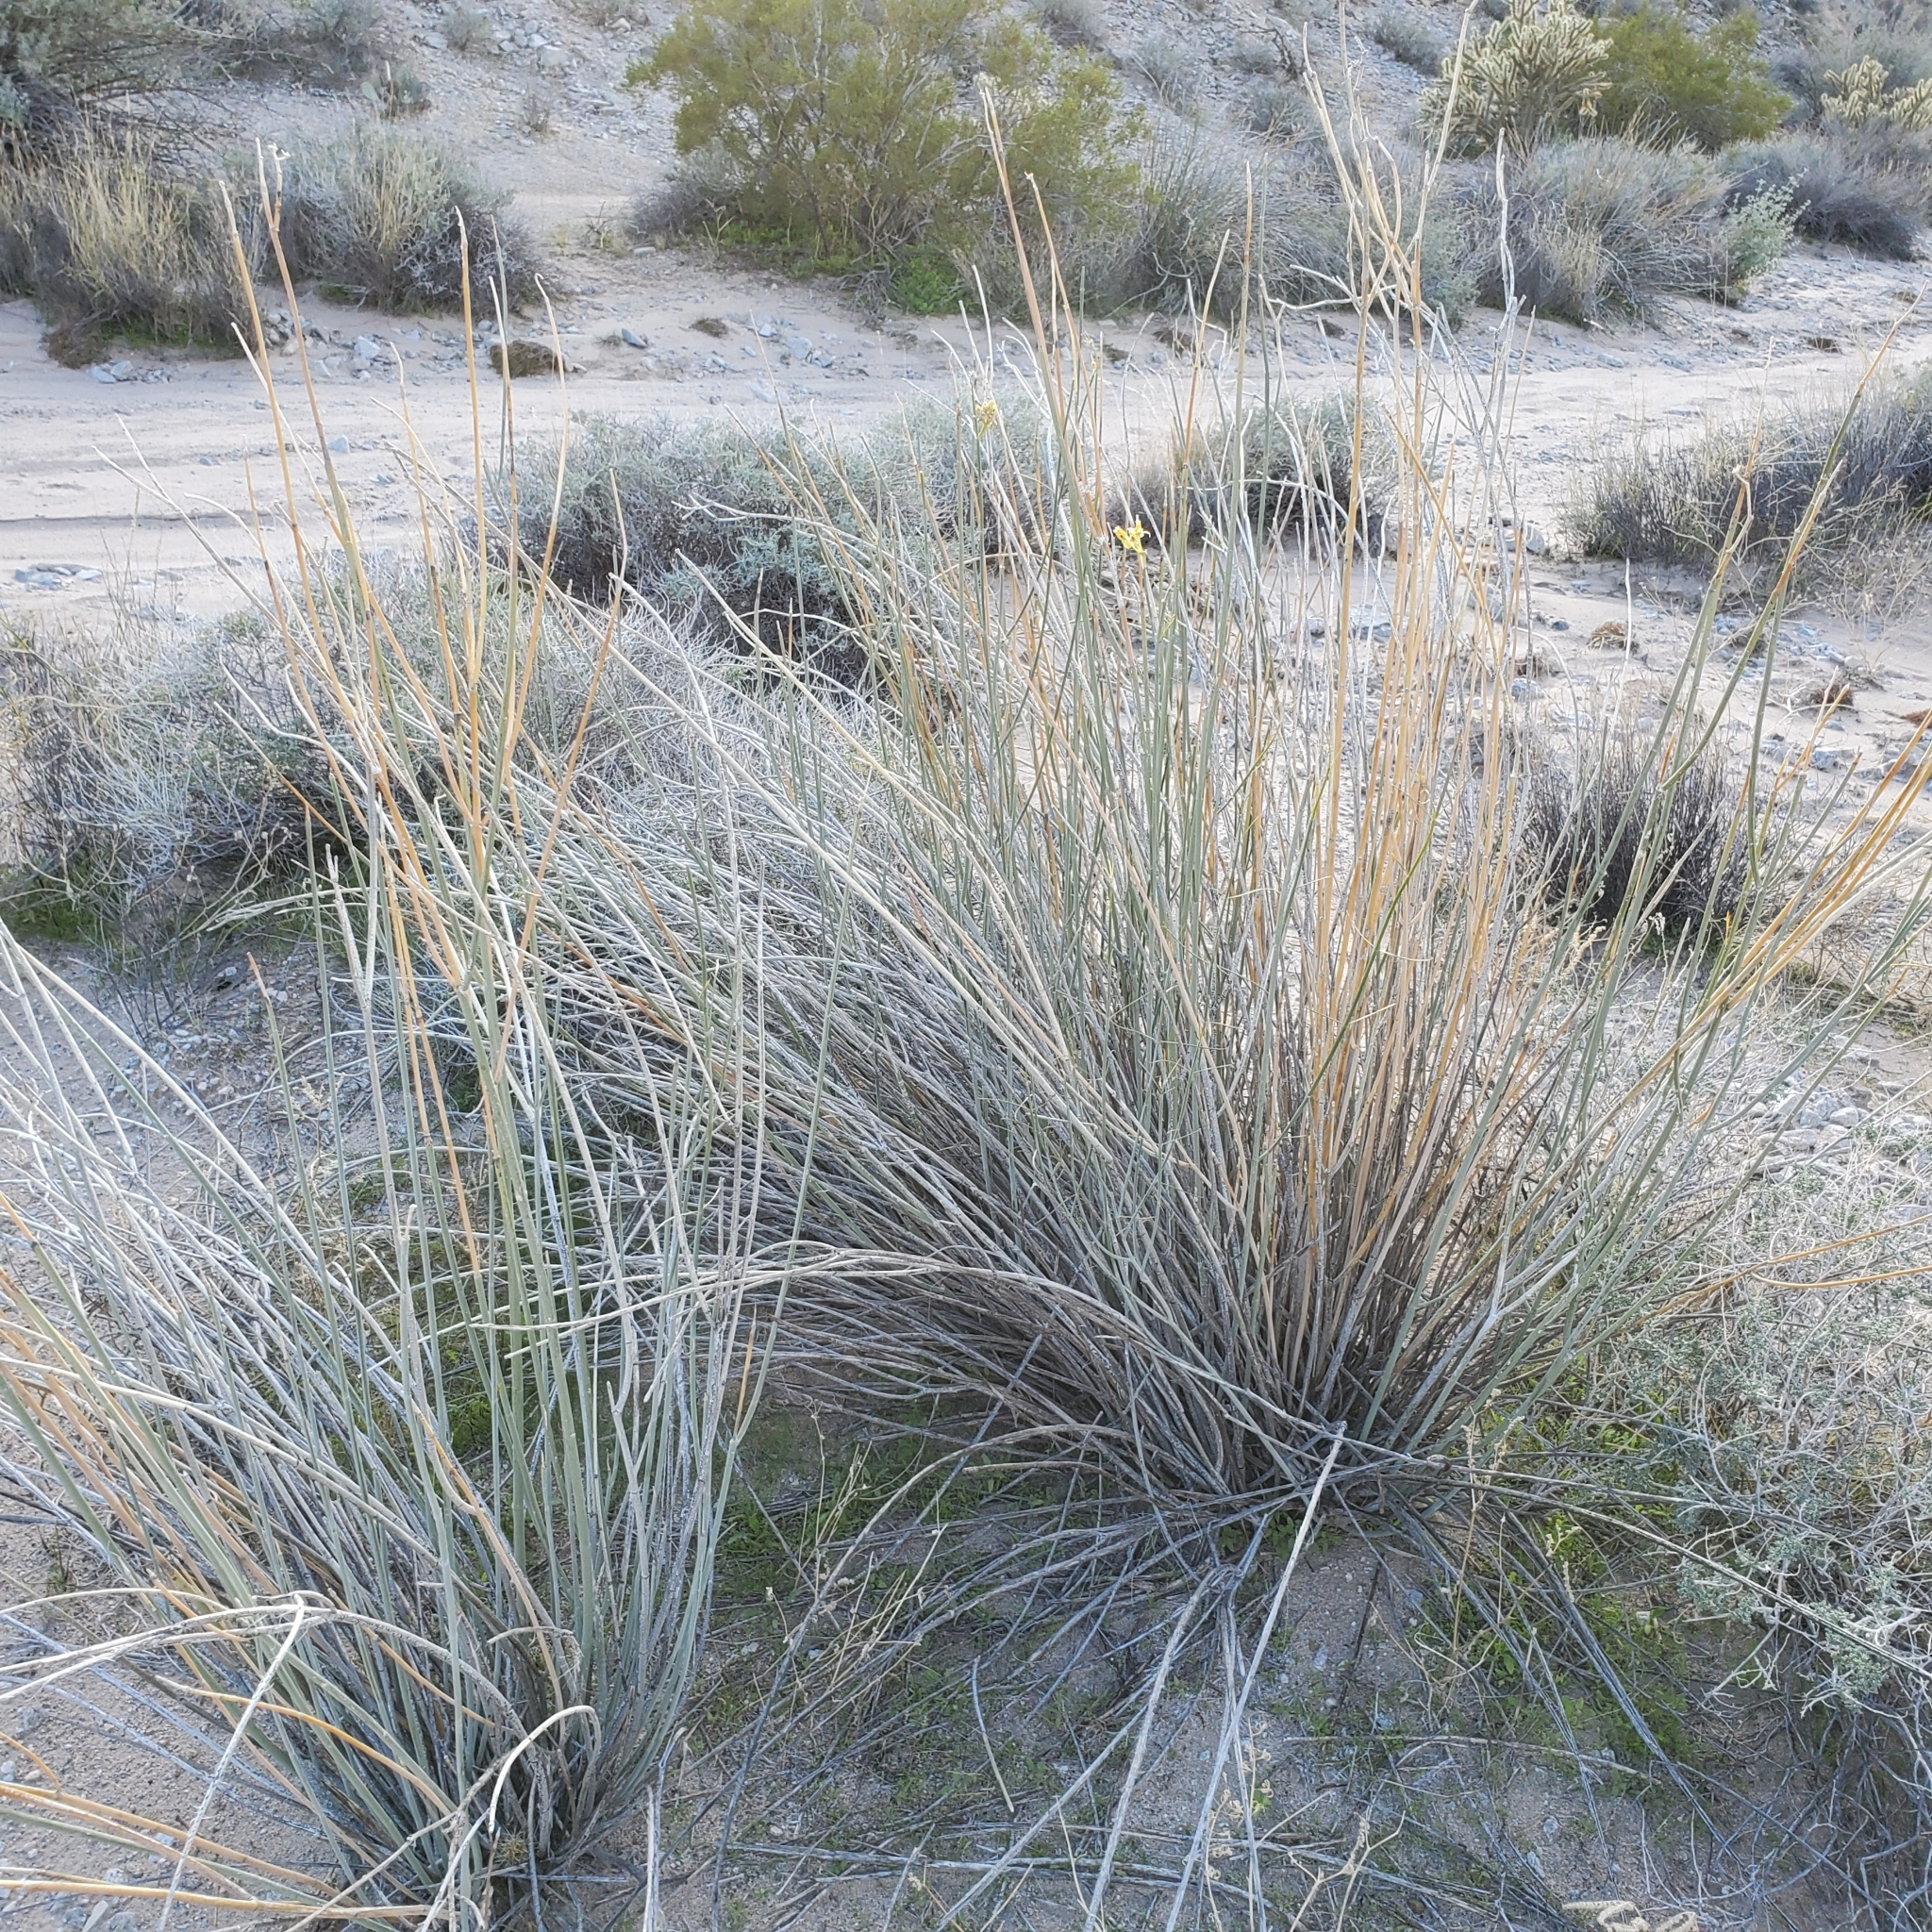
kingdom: Plantae
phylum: Tracheophyta
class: Magnoliopsida
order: Gentianales
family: Apocynaceae
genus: Asclepias
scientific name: Asclepias subulata
